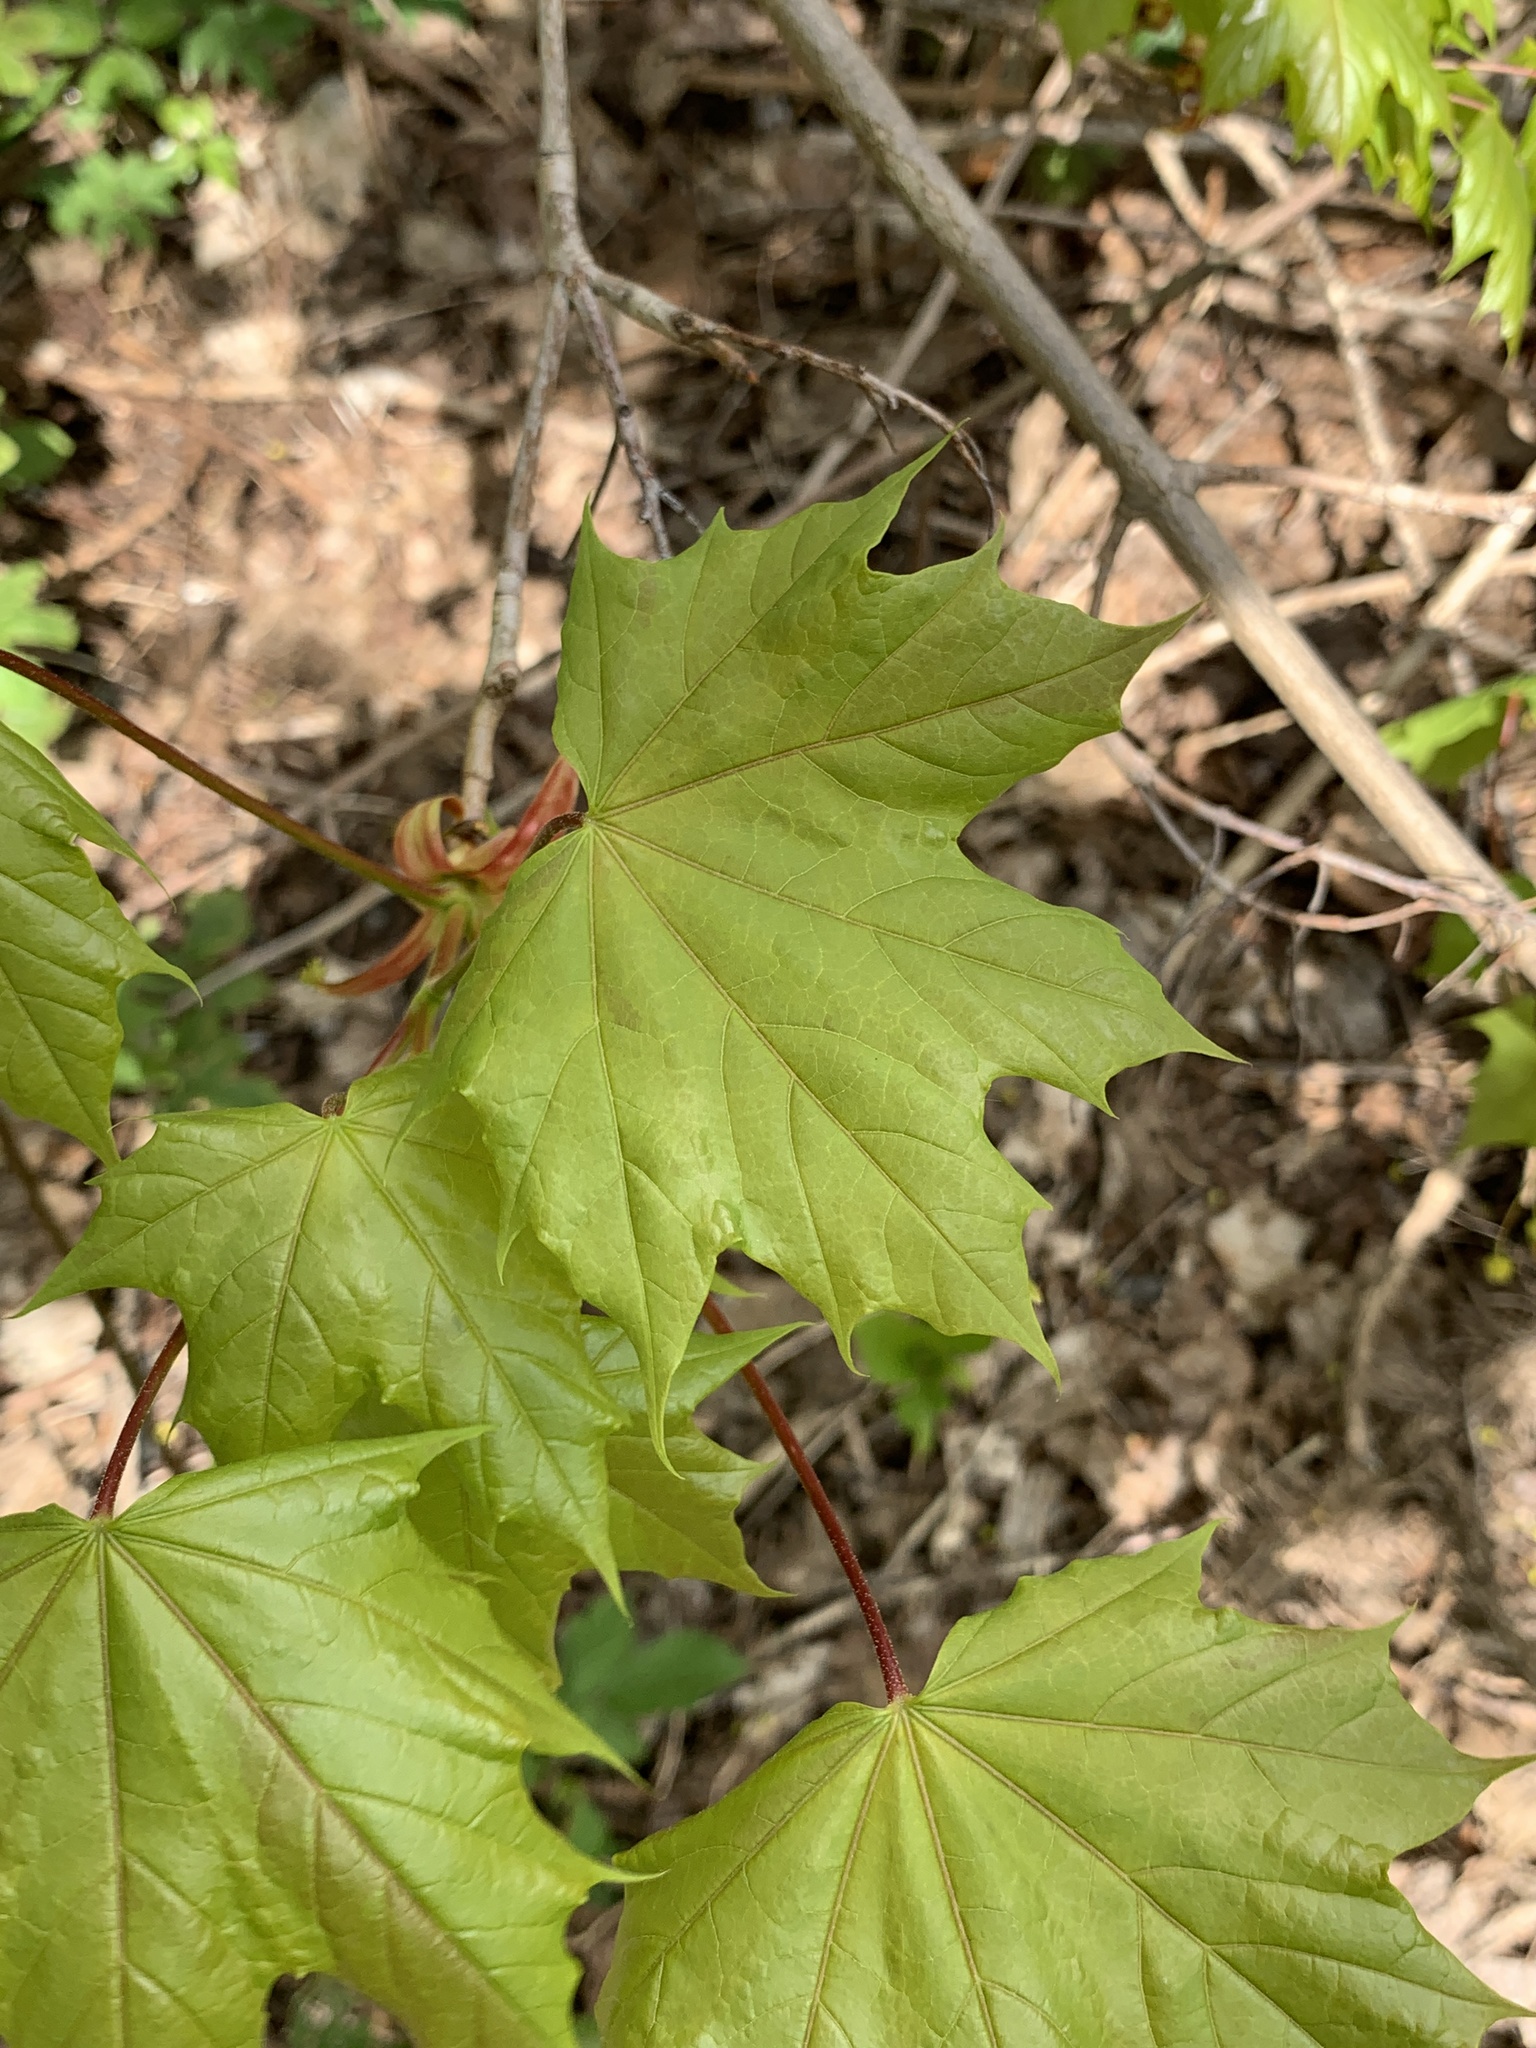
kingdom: Plantae
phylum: Tracheophyta
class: Magnoliopsida
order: Sapindales
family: Sapindaceae
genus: Acer
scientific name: Acer platanoides
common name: Norway maple
